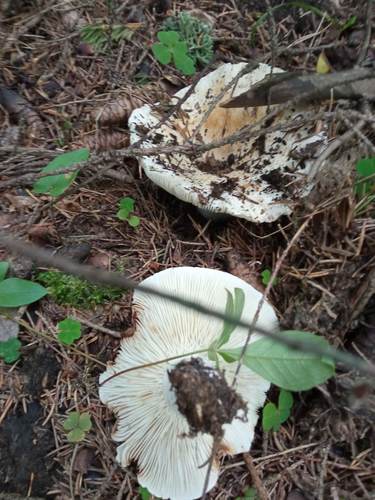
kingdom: Fungi
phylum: Basidiomycota
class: Agaricomycetes
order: Russulales
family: Russulaceae
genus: Russula
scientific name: Russula delica
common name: Milk white brittlegill
